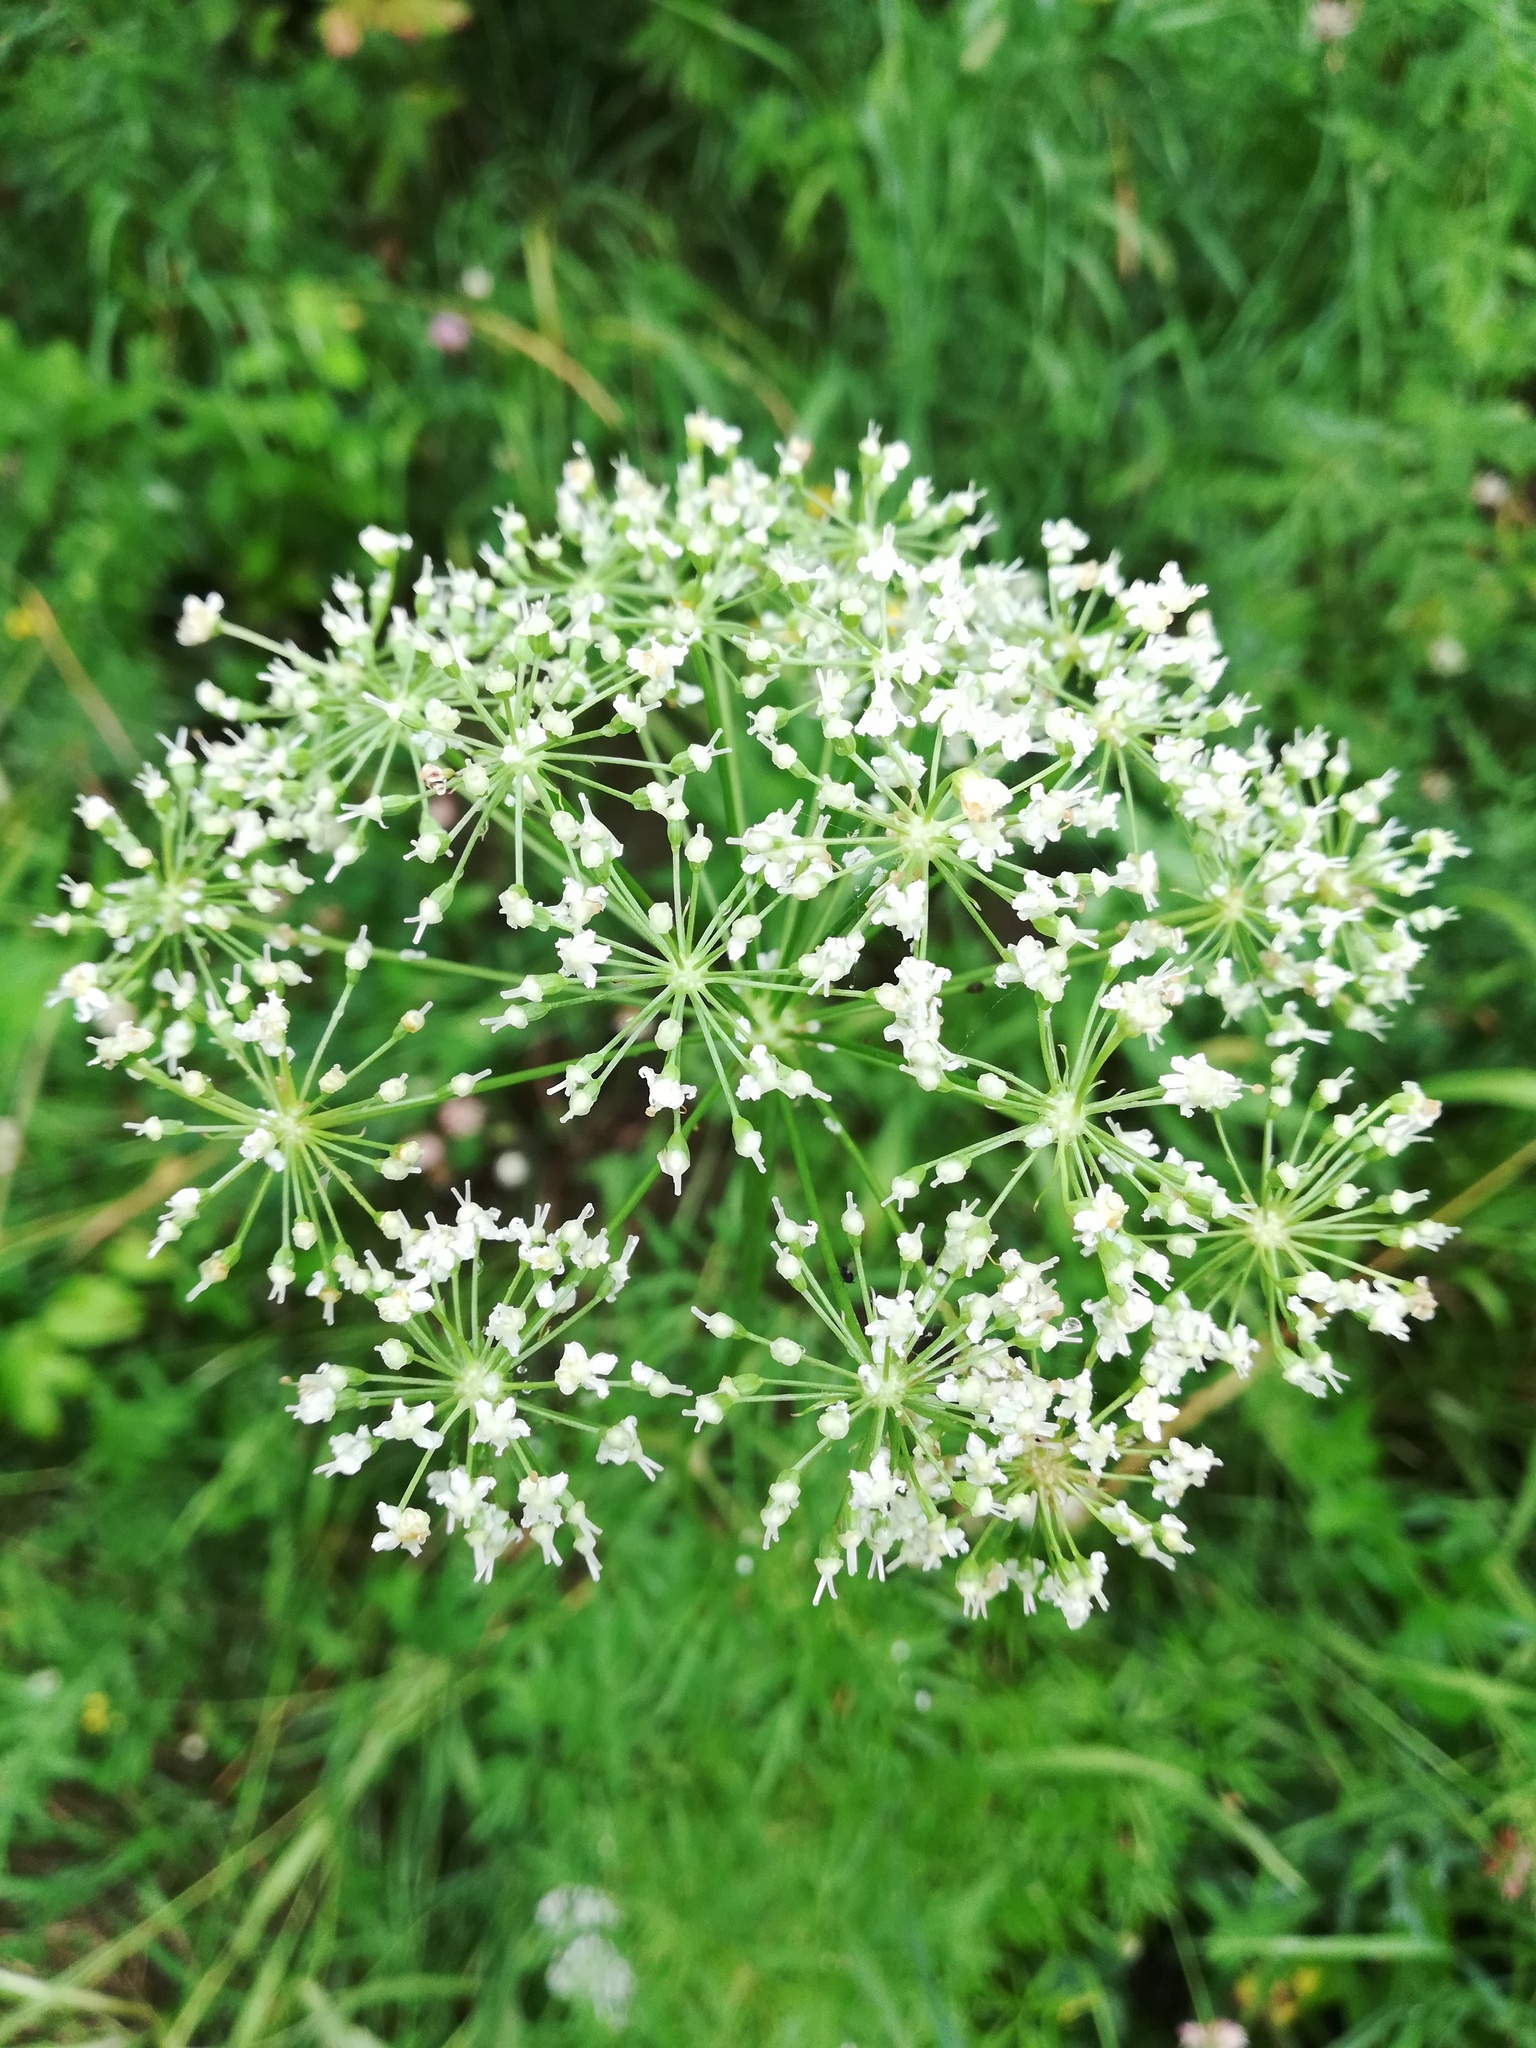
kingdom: Plantae
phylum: Tracheophyta
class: Magnoliopsida
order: Apiales
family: Apiaceae
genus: Cenolophium
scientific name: Cenolophium fischeri
